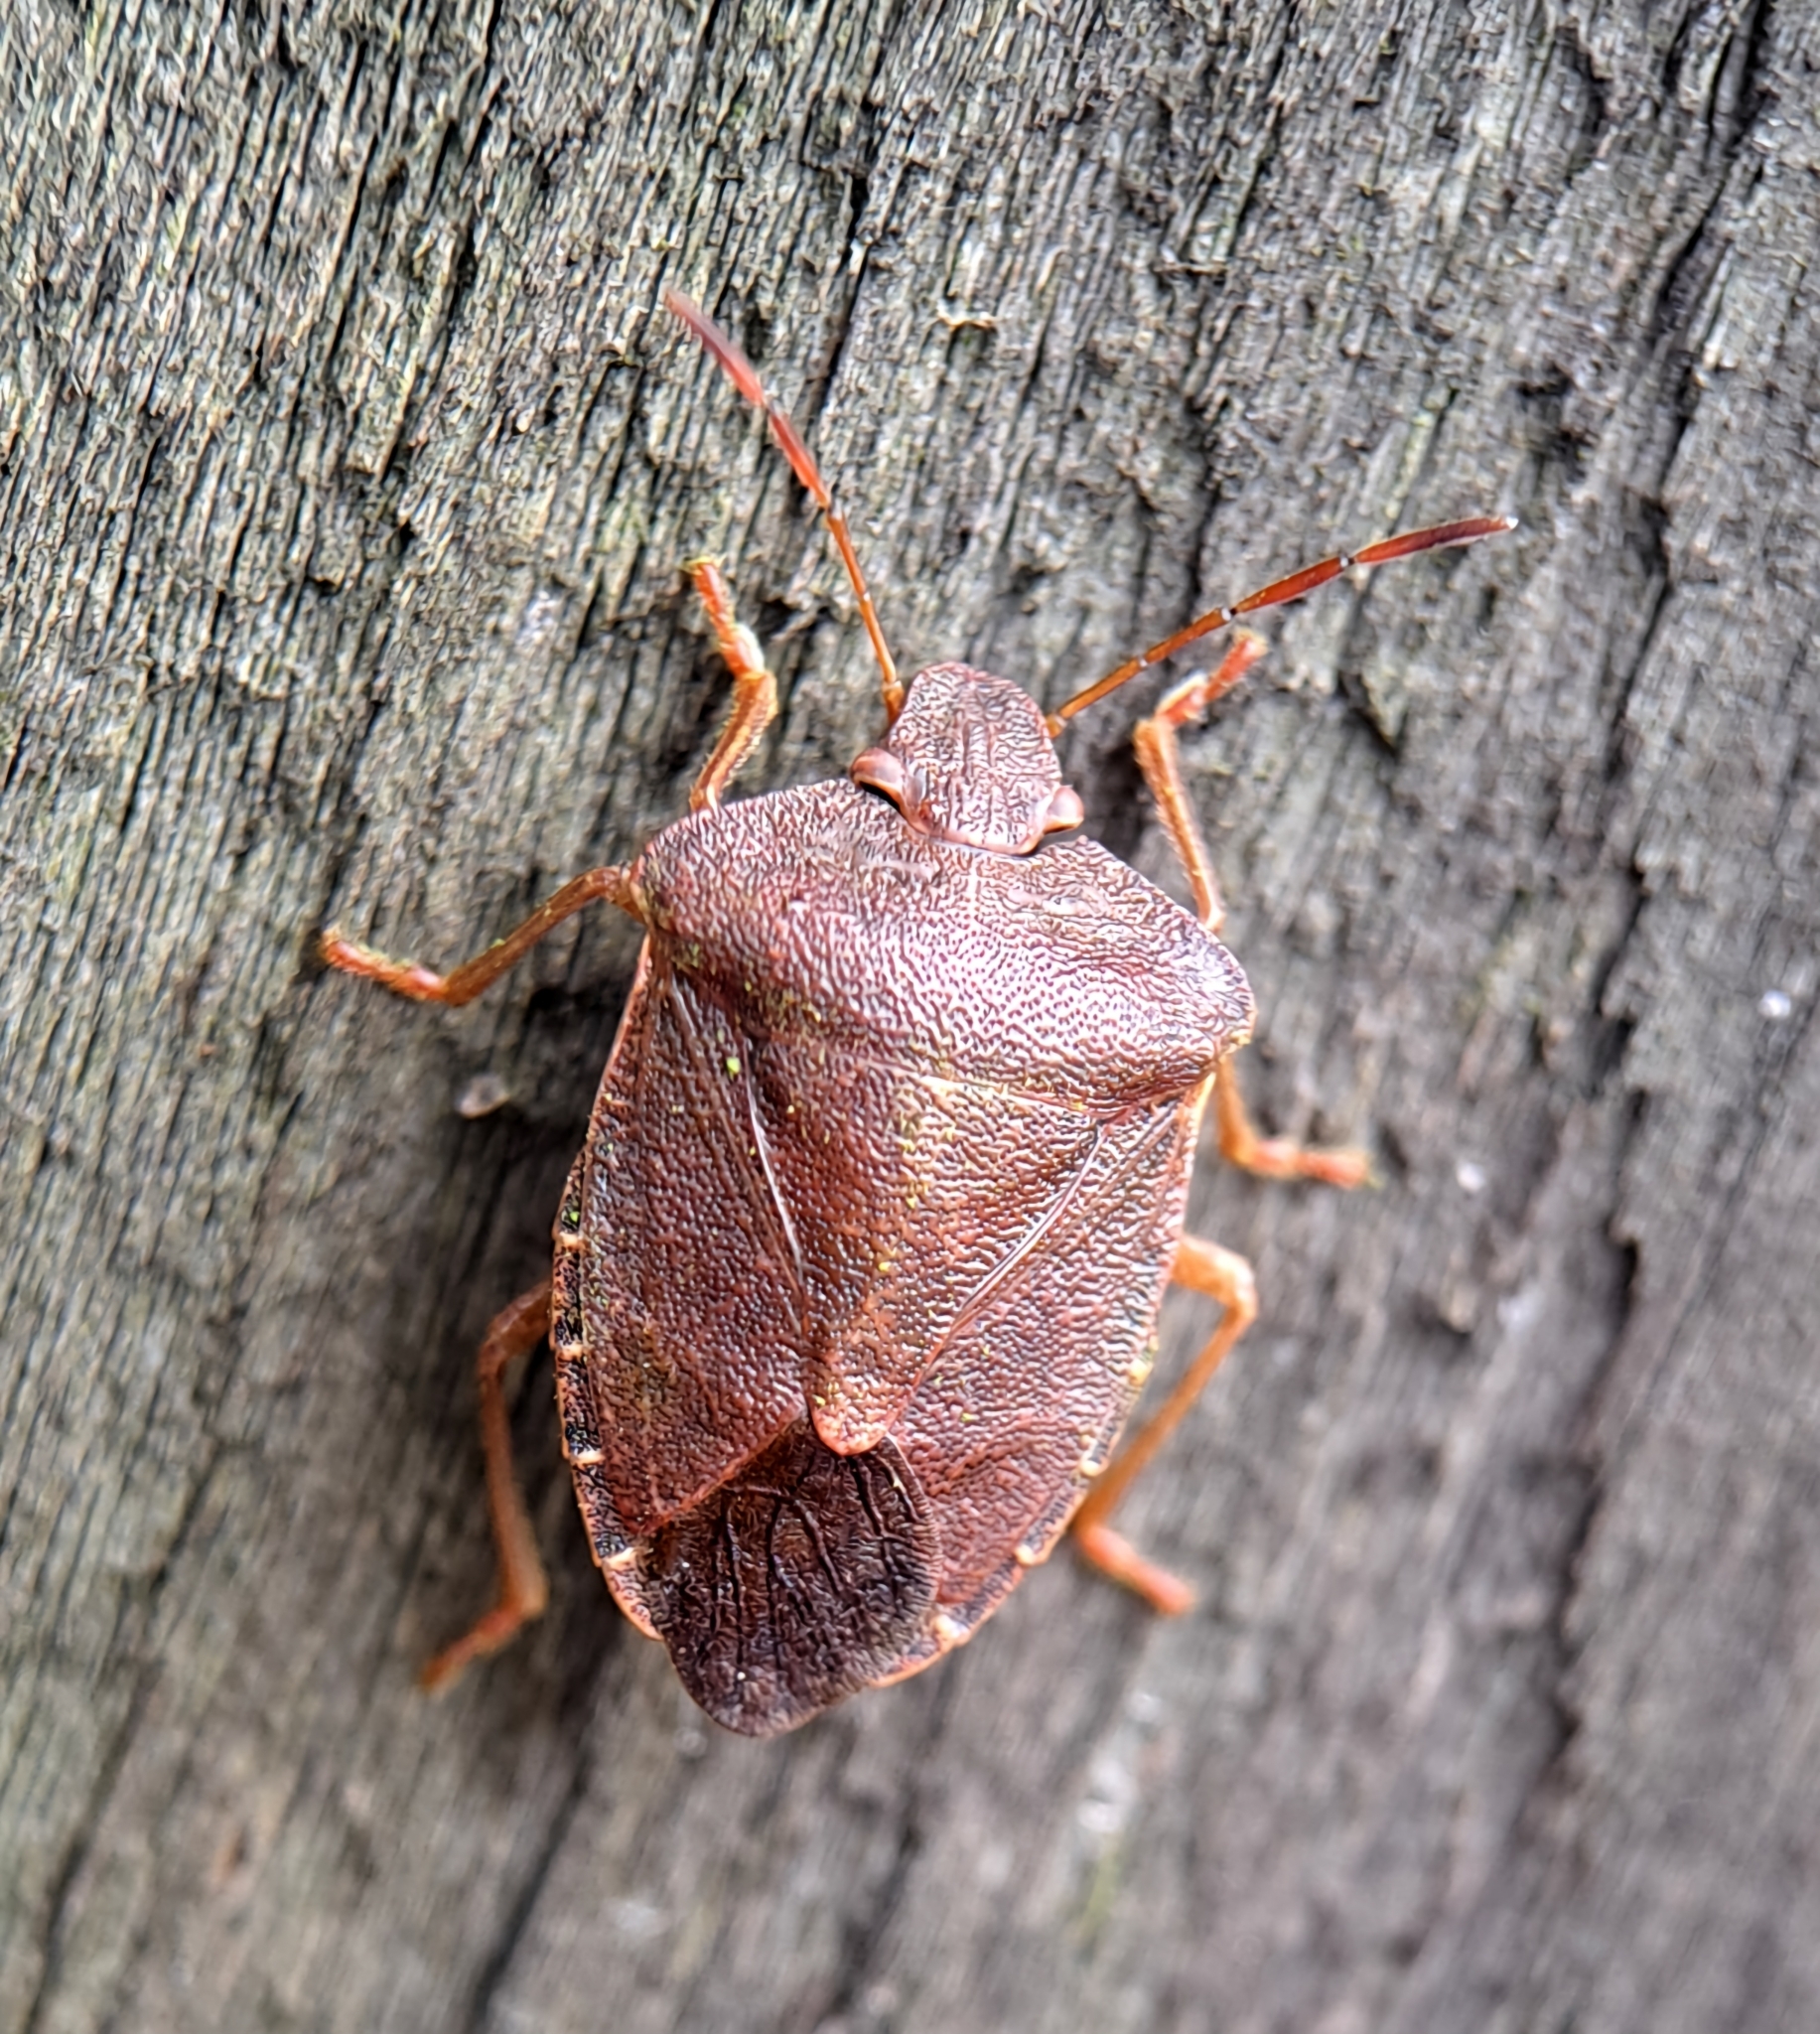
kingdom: Animalia
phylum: Arthropoda
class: Insecta
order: Hemiptera
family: Pentatomidae
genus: Palomena
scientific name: Palomena prasina
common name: Green shieldbug
